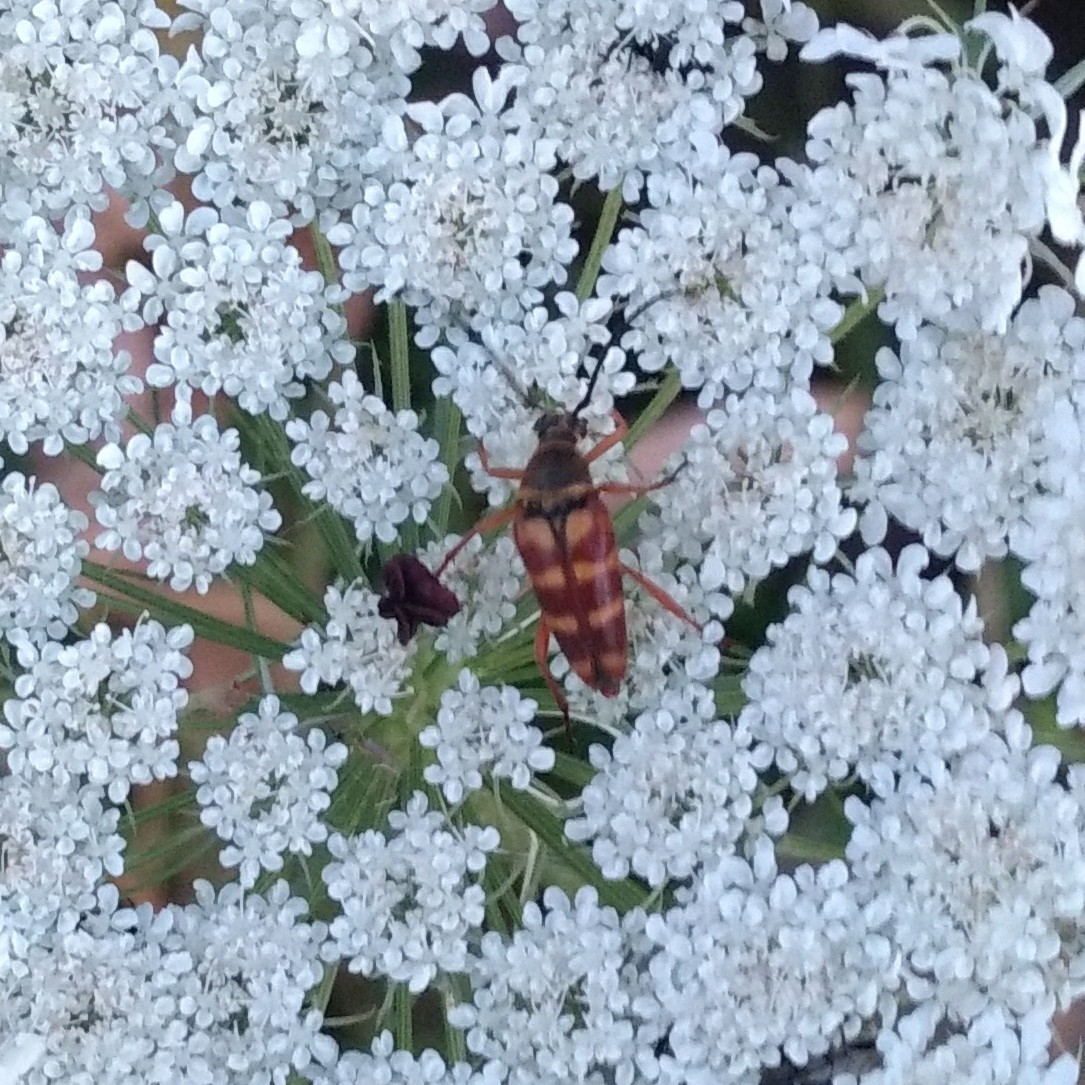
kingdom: Animalia
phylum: Arthropoda
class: Insecta
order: Coleoptera
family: Cerambycidae
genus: Typocerus
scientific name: Typocerus velutinus
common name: Banded longhorn beetle
